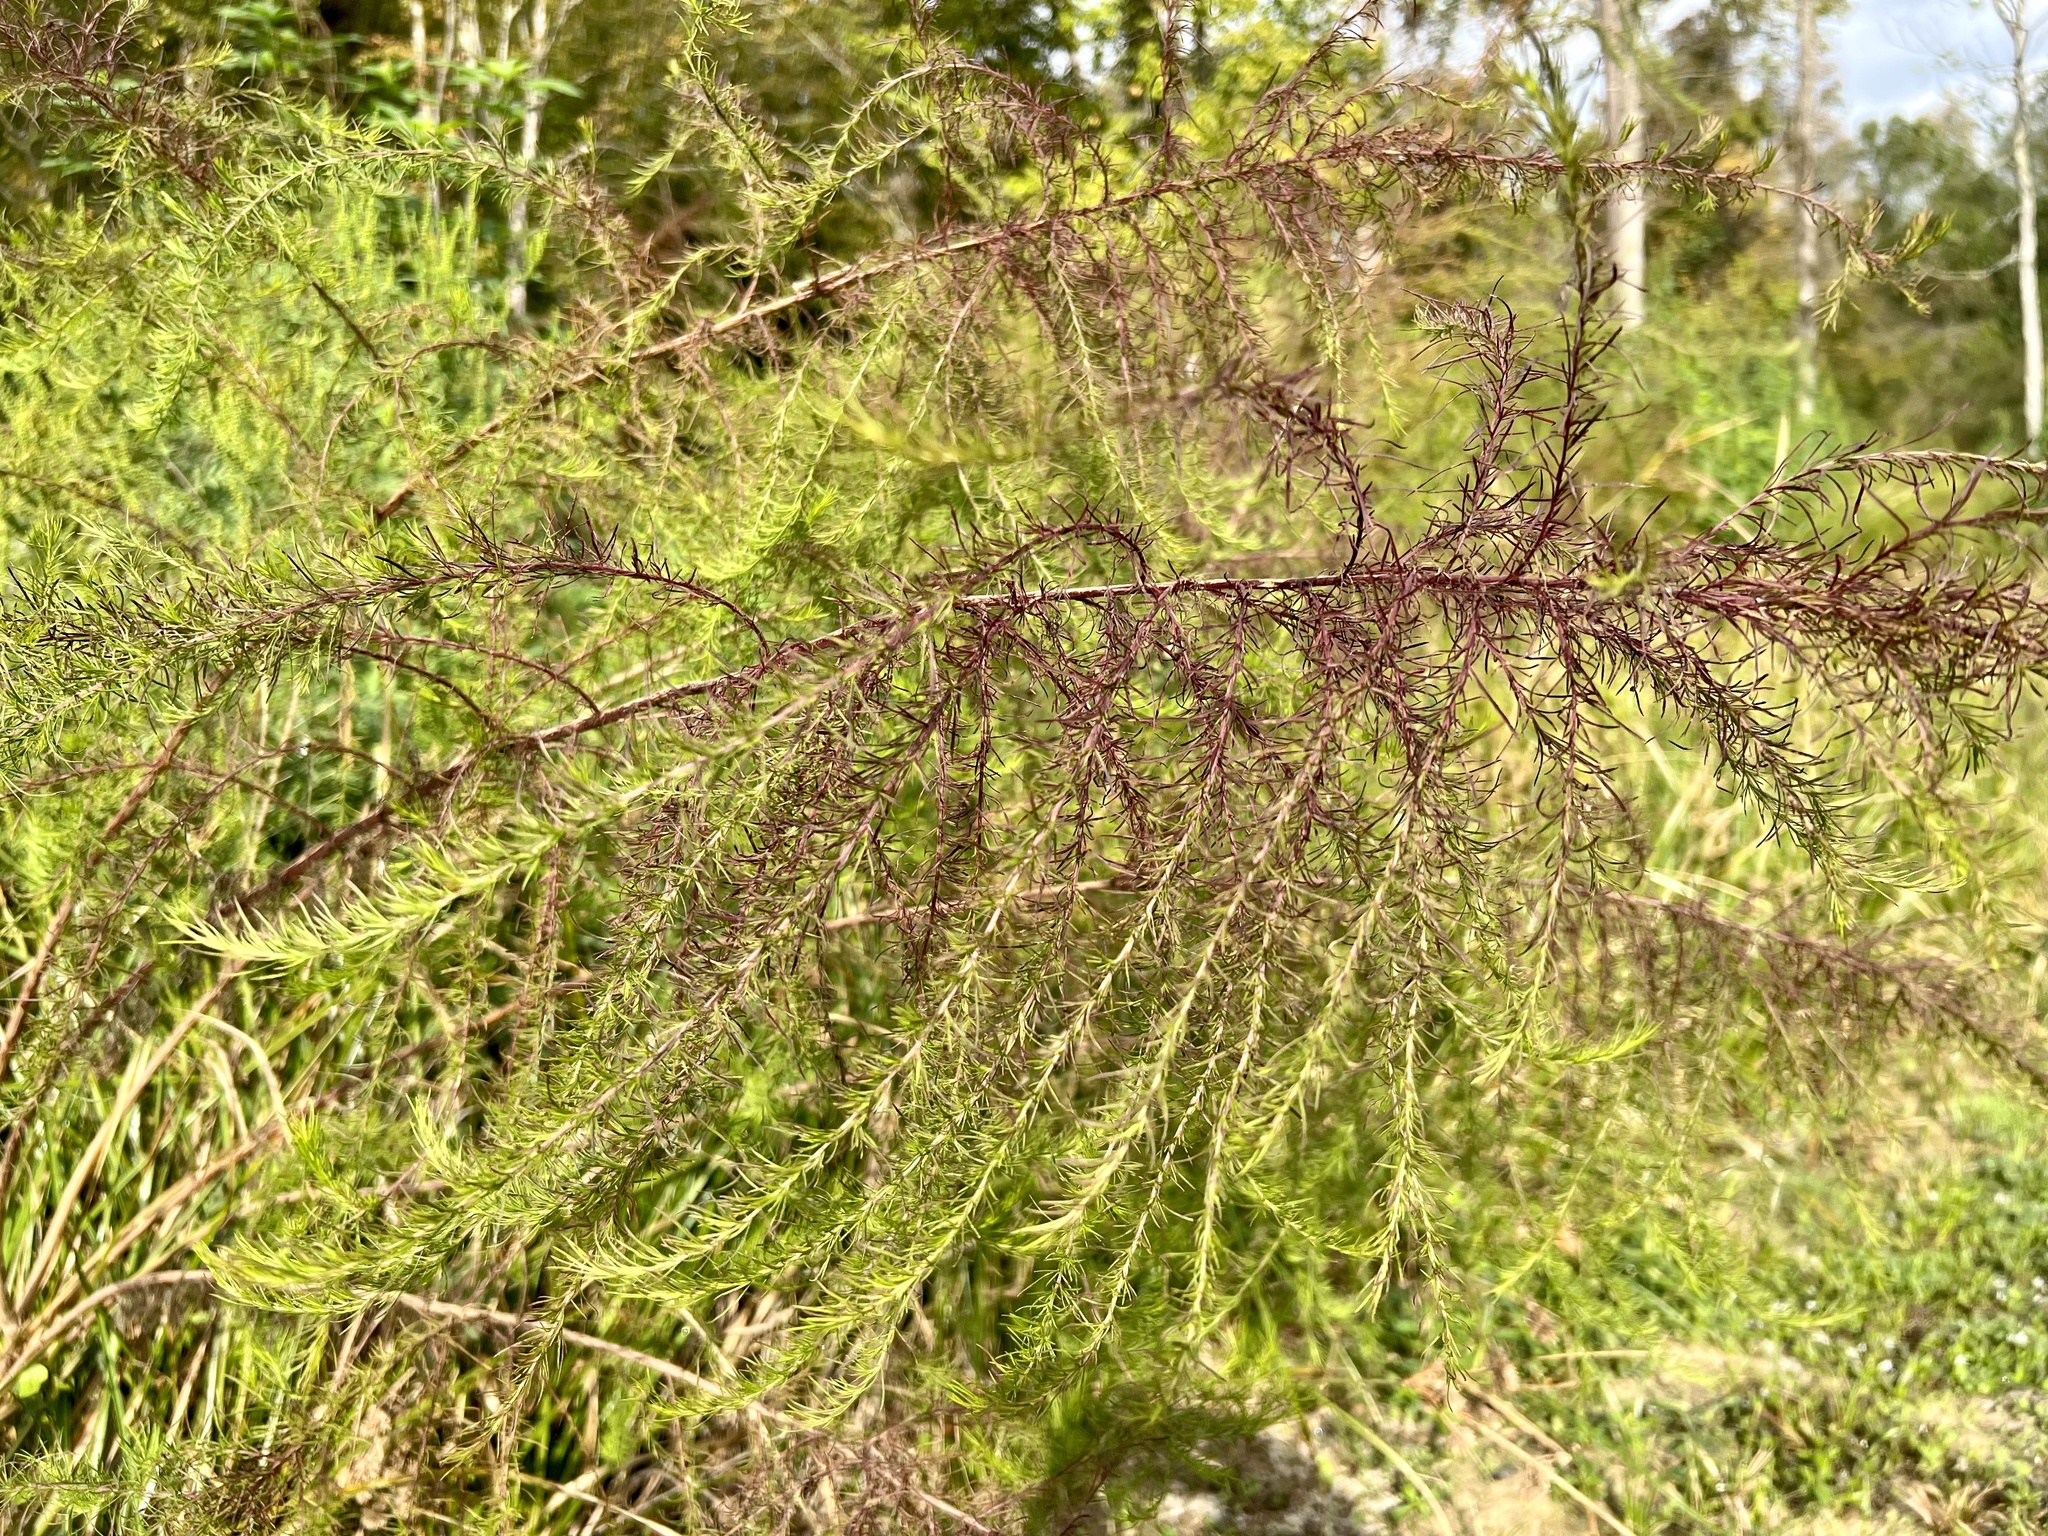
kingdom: Plantae
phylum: Tracheophyta
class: Magnoliopsida
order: Asterales
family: Asteraceae
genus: Eupatorium
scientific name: Eupatorium capillifolium
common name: Dog-fennel
